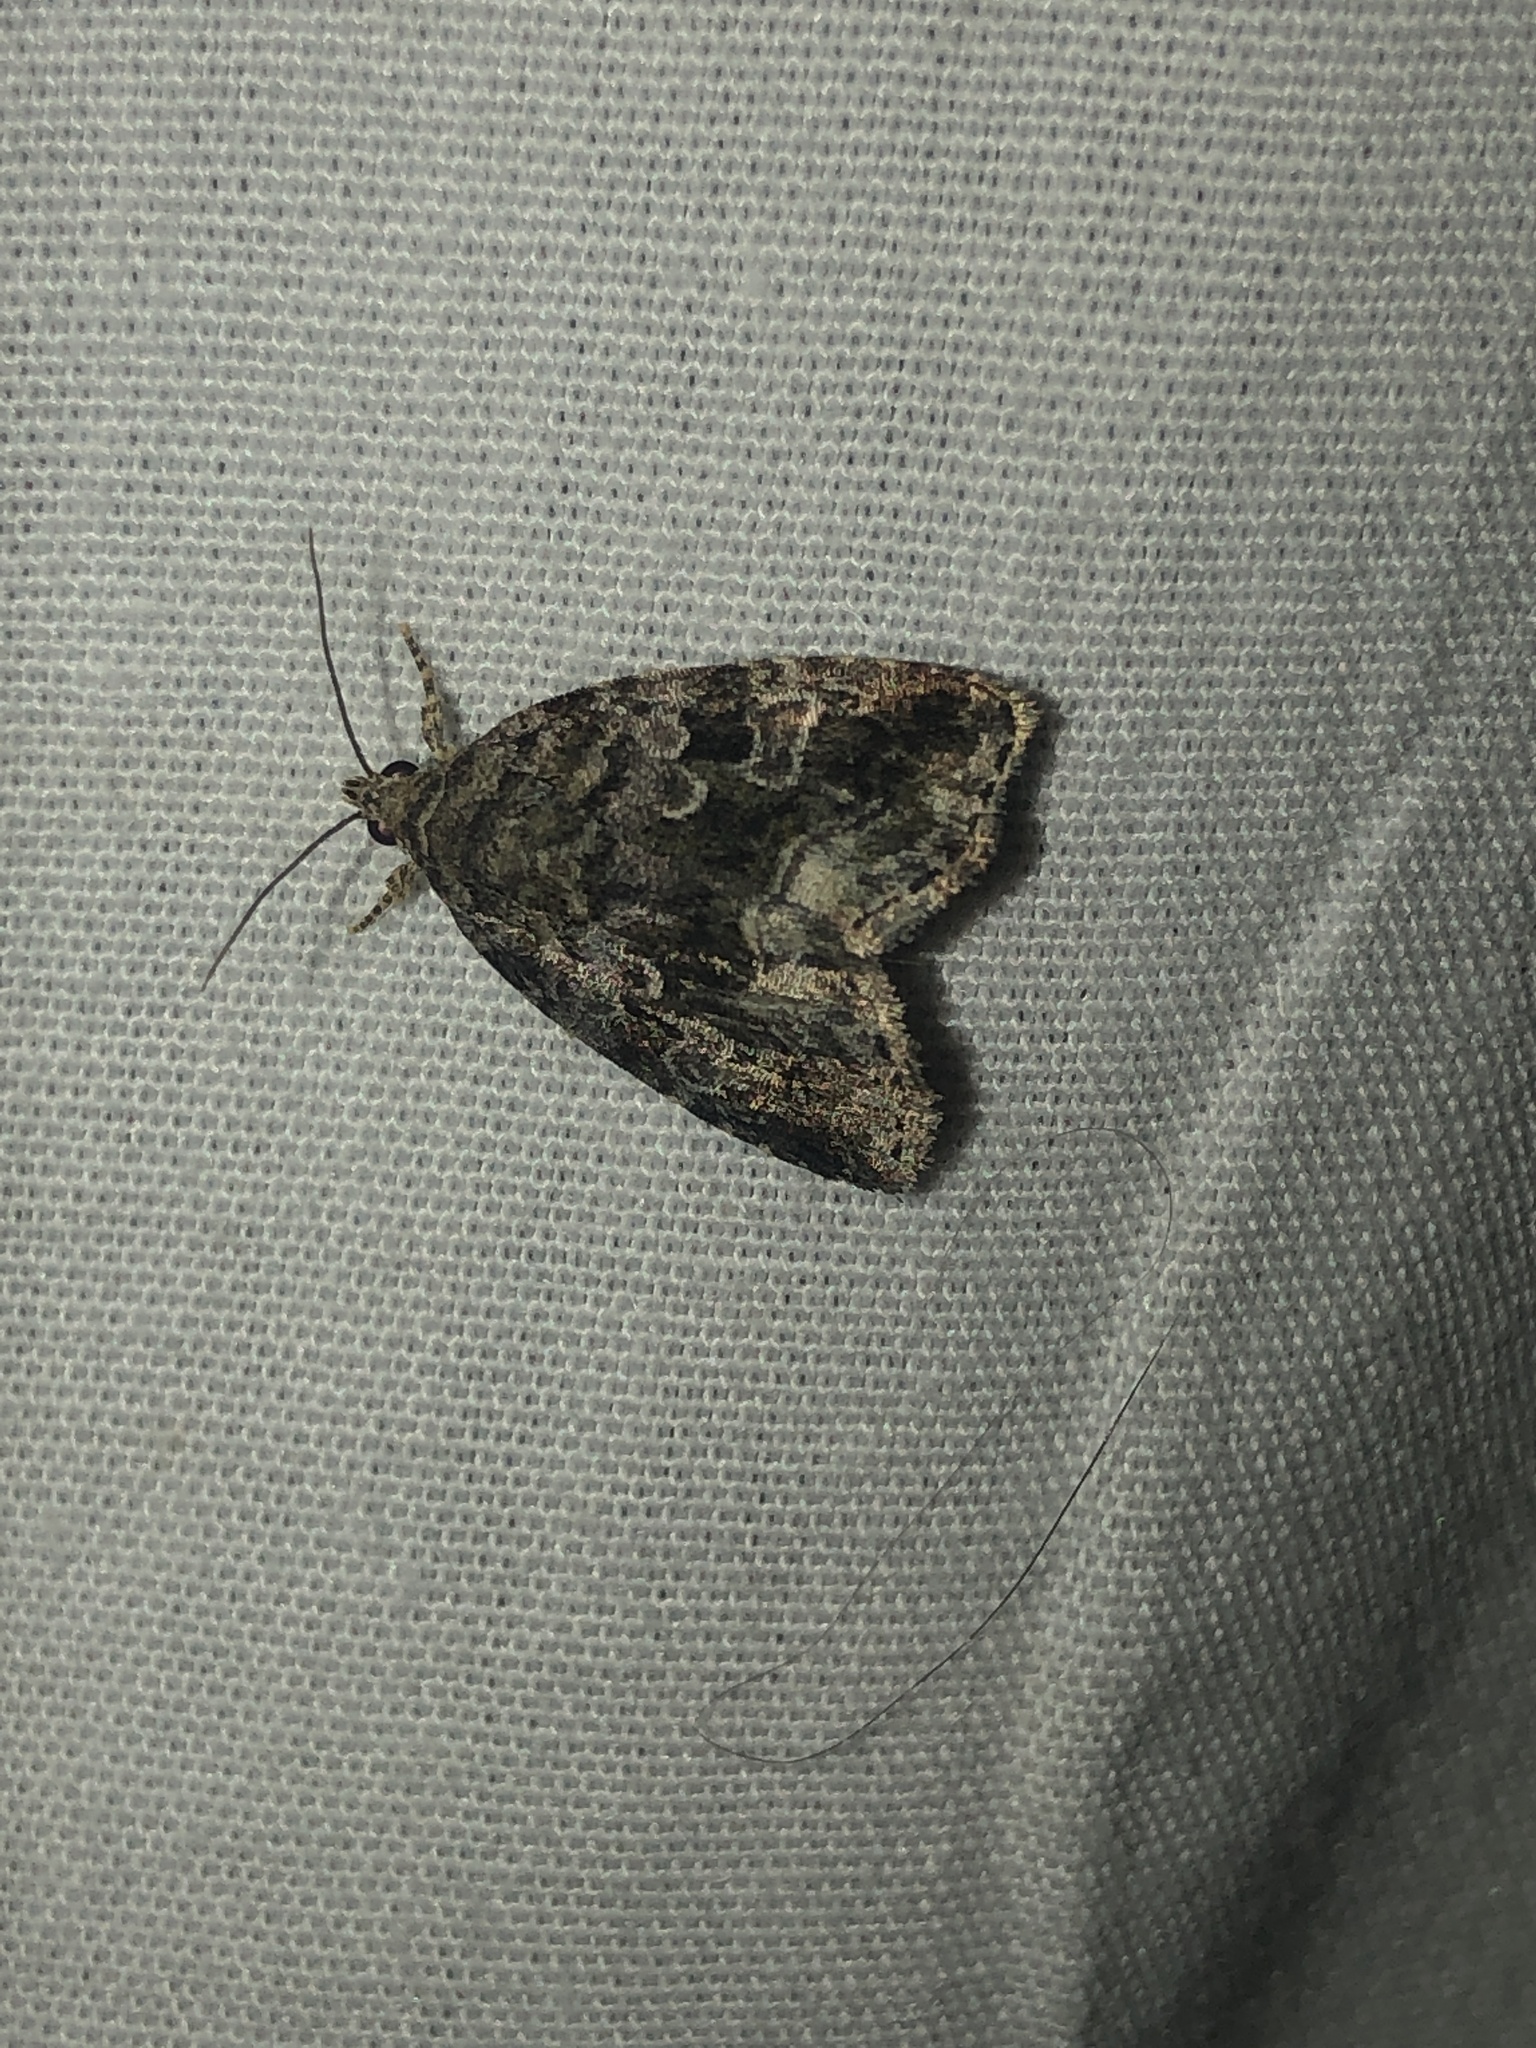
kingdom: Animalia
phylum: Arthropoda
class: Insecta
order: Lepidoptera
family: Noctuidae
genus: Protodeltote
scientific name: Protodeltote muscosula
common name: Large mossy glyph
